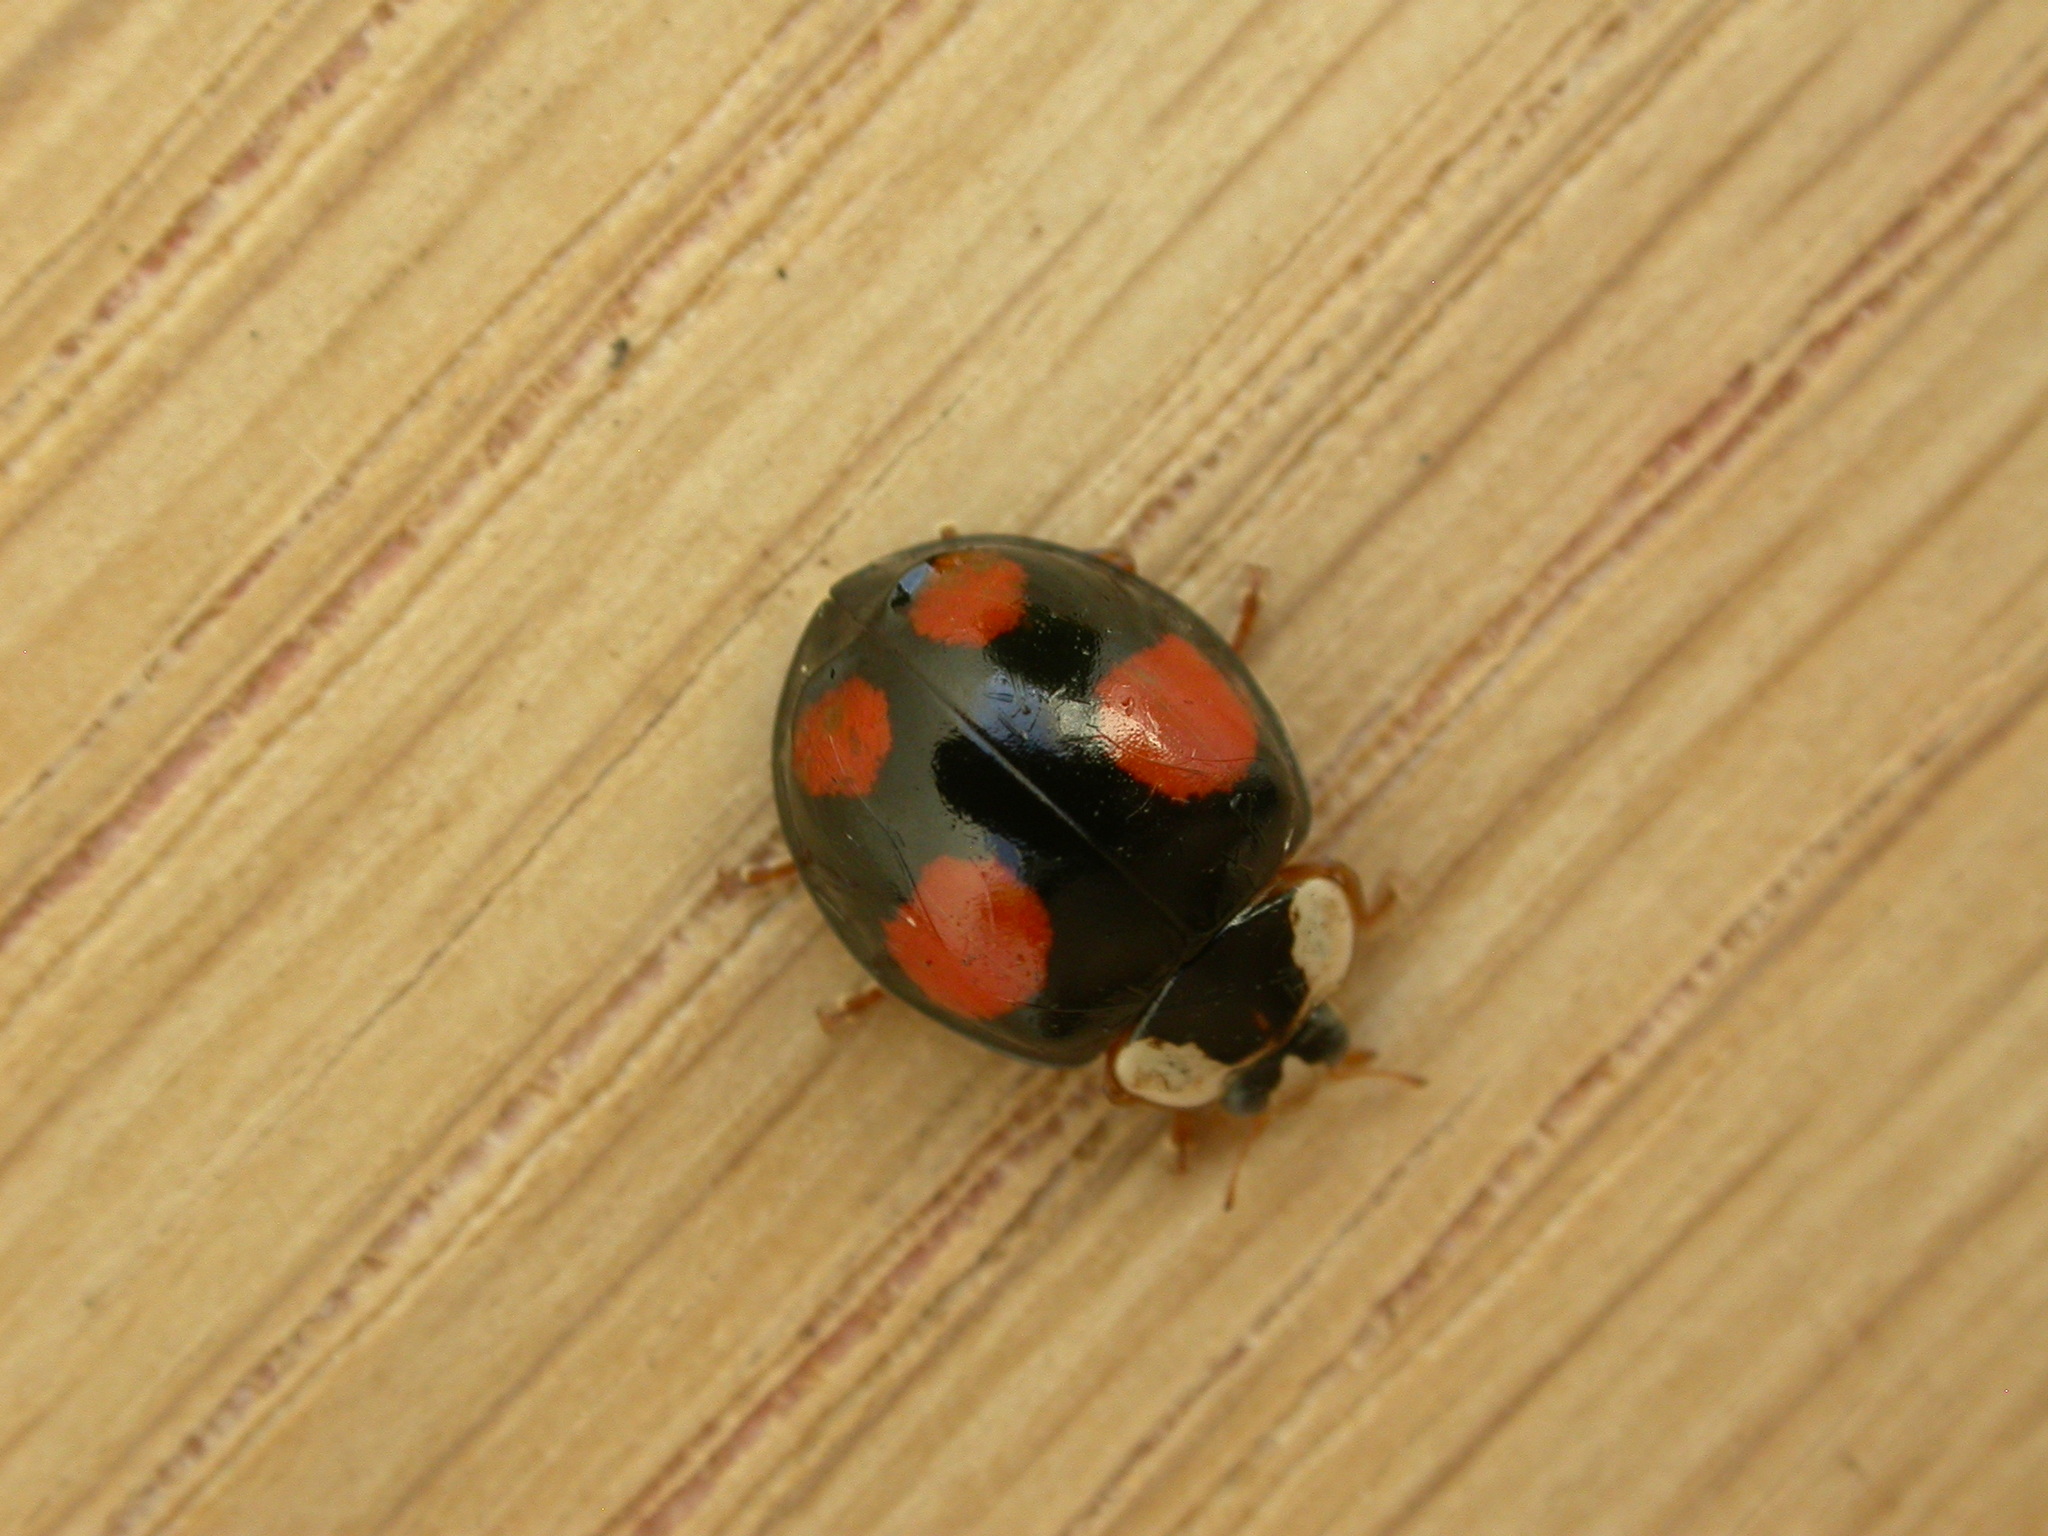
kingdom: Animalia
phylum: Arthropoda
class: Insecta
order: Coleoptera
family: Coccinellidae
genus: Harmonia
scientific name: Harmonia axyridis
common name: Harlequin ladybird
